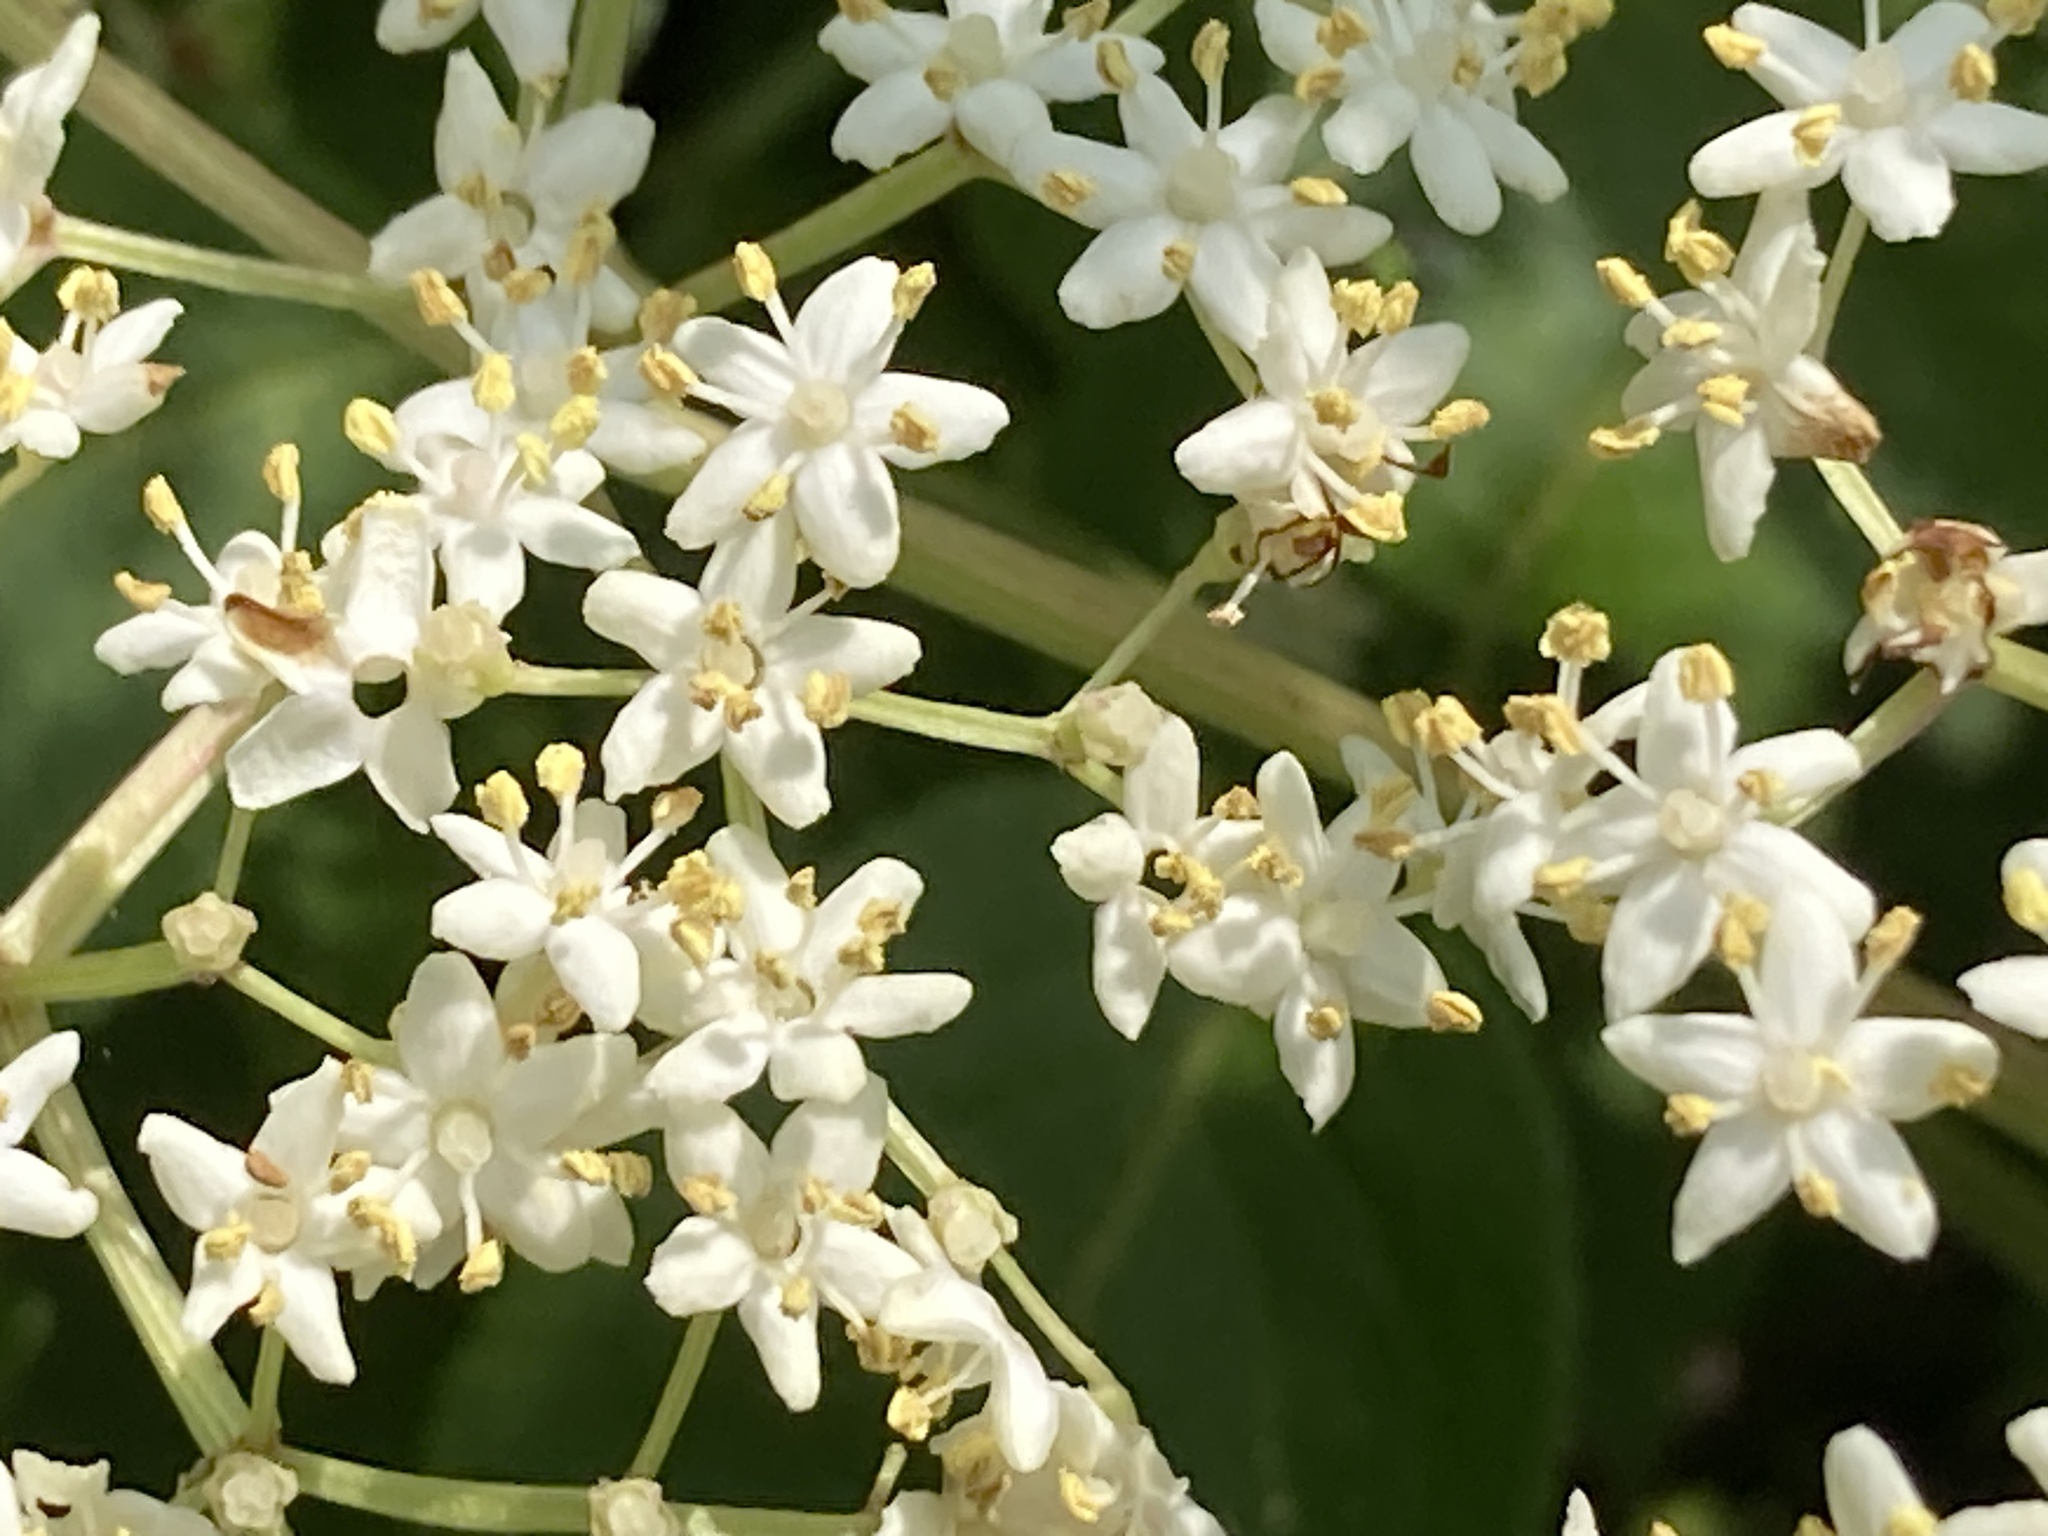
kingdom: Plantae
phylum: Tracheophyta
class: Magnoliopsida
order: Dipsacales
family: Viburnaceae
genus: Sambucus
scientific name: Sambucus canadensis
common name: American elder
